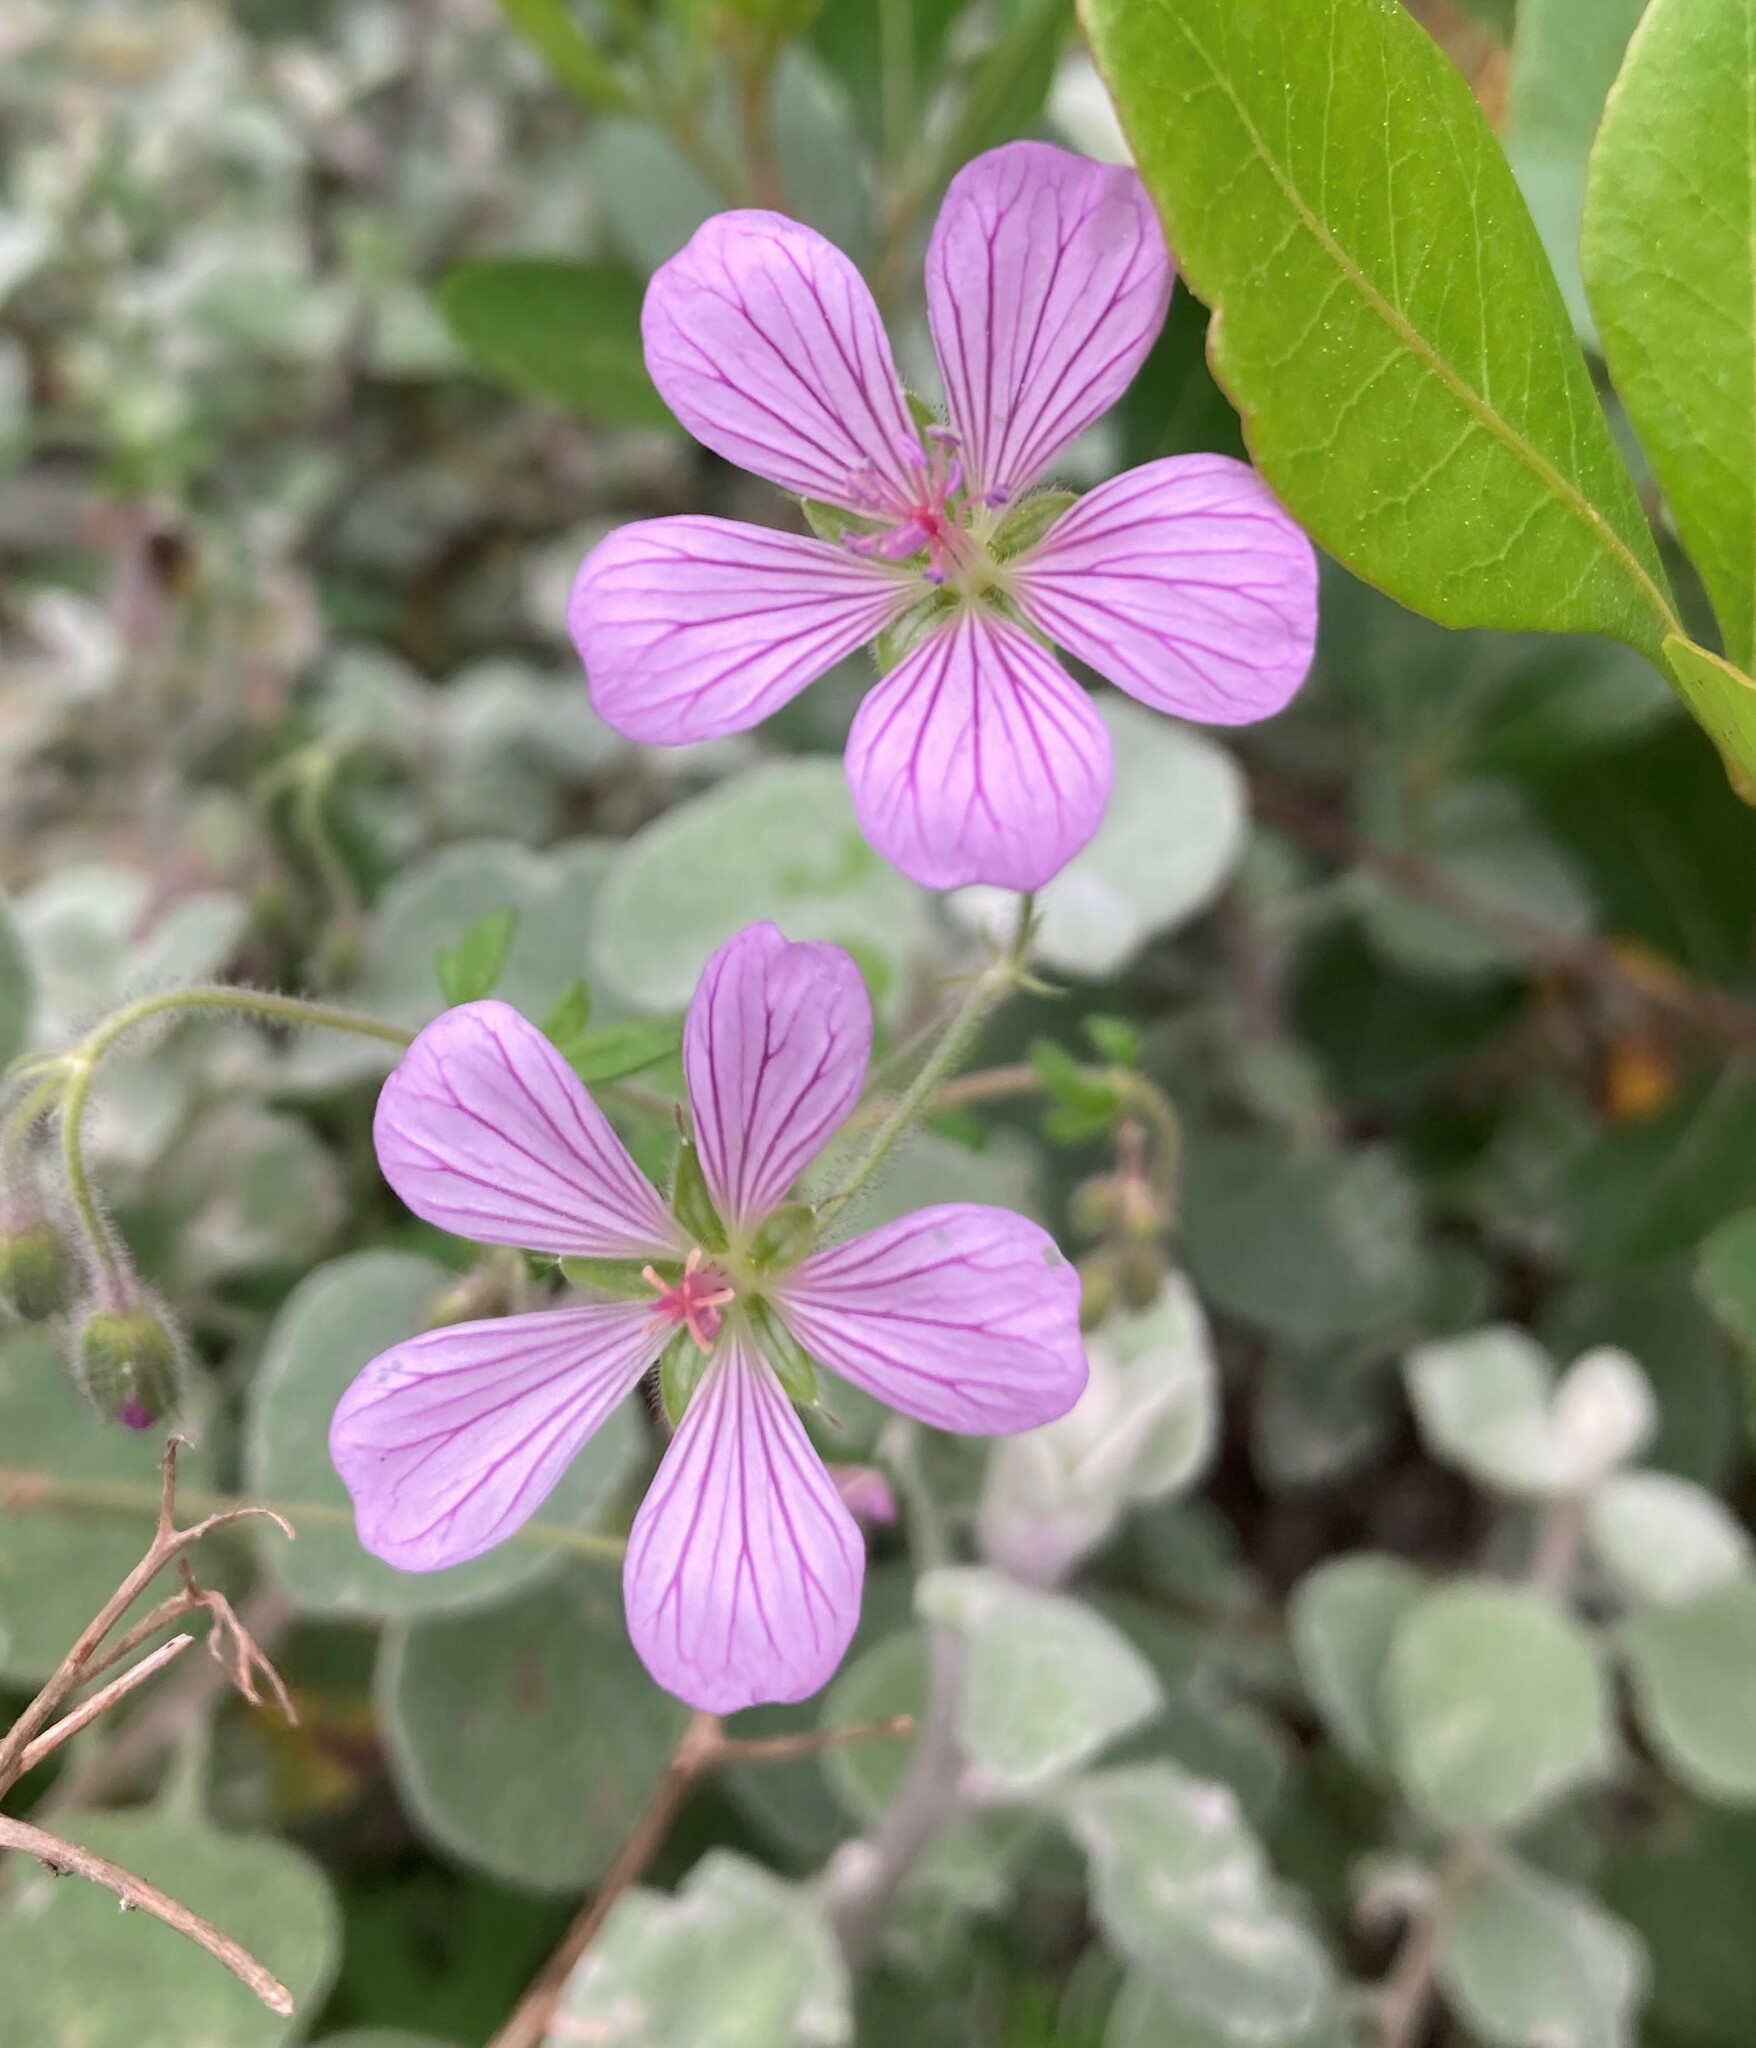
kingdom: Plantae
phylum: Tracheophyta
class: Magnoliopsida
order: Geraniales
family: Geraniaceae
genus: Geranium
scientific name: Geranium ornithopodon
